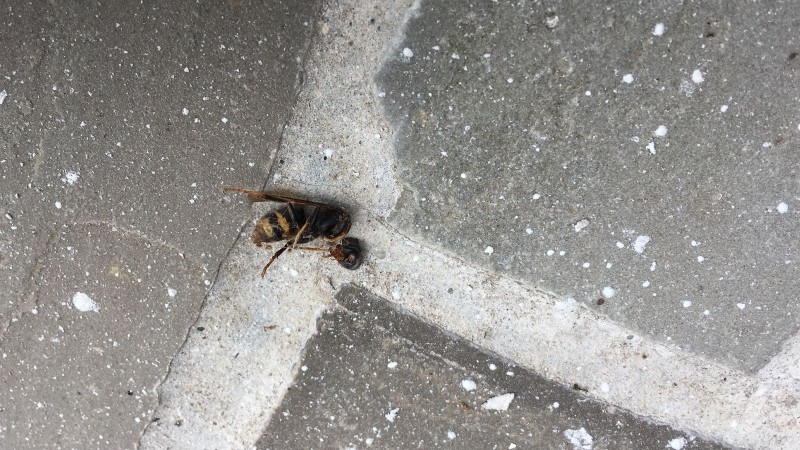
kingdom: Animalia
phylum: Arthropoda
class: Insecta
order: Hymenoptera
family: Vespidae
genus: Vespa
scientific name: Vespa velutina
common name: Asian hornet
